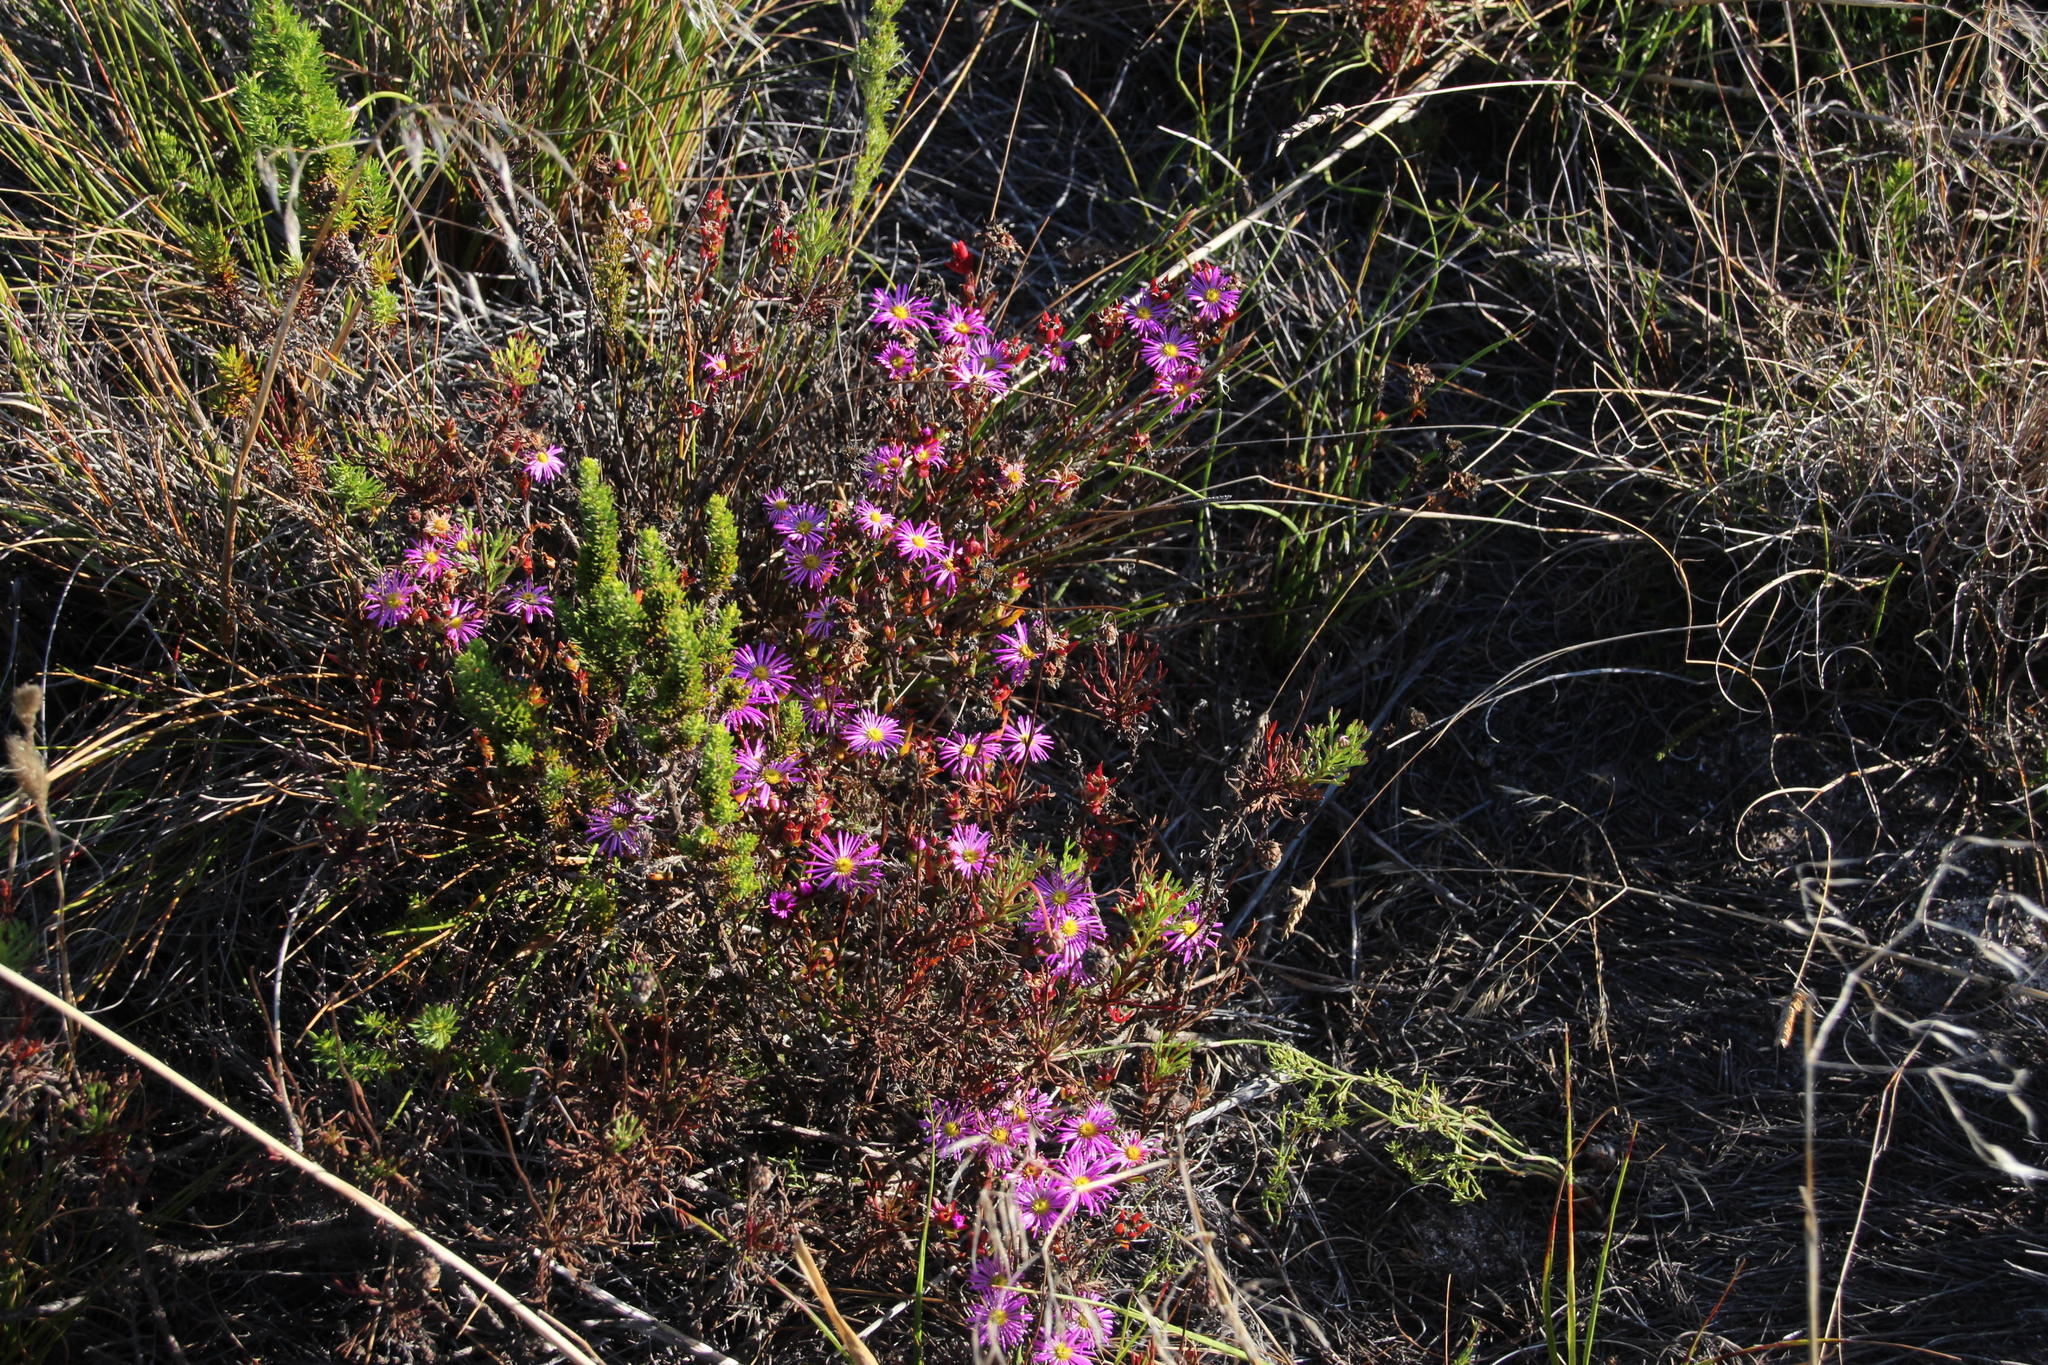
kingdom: Plantae
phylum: Tracheophyta
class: Magnoliopsida
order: Caryophyllales
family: Aizoaceae
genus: Erepsia
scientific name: Erepsia bracteata
